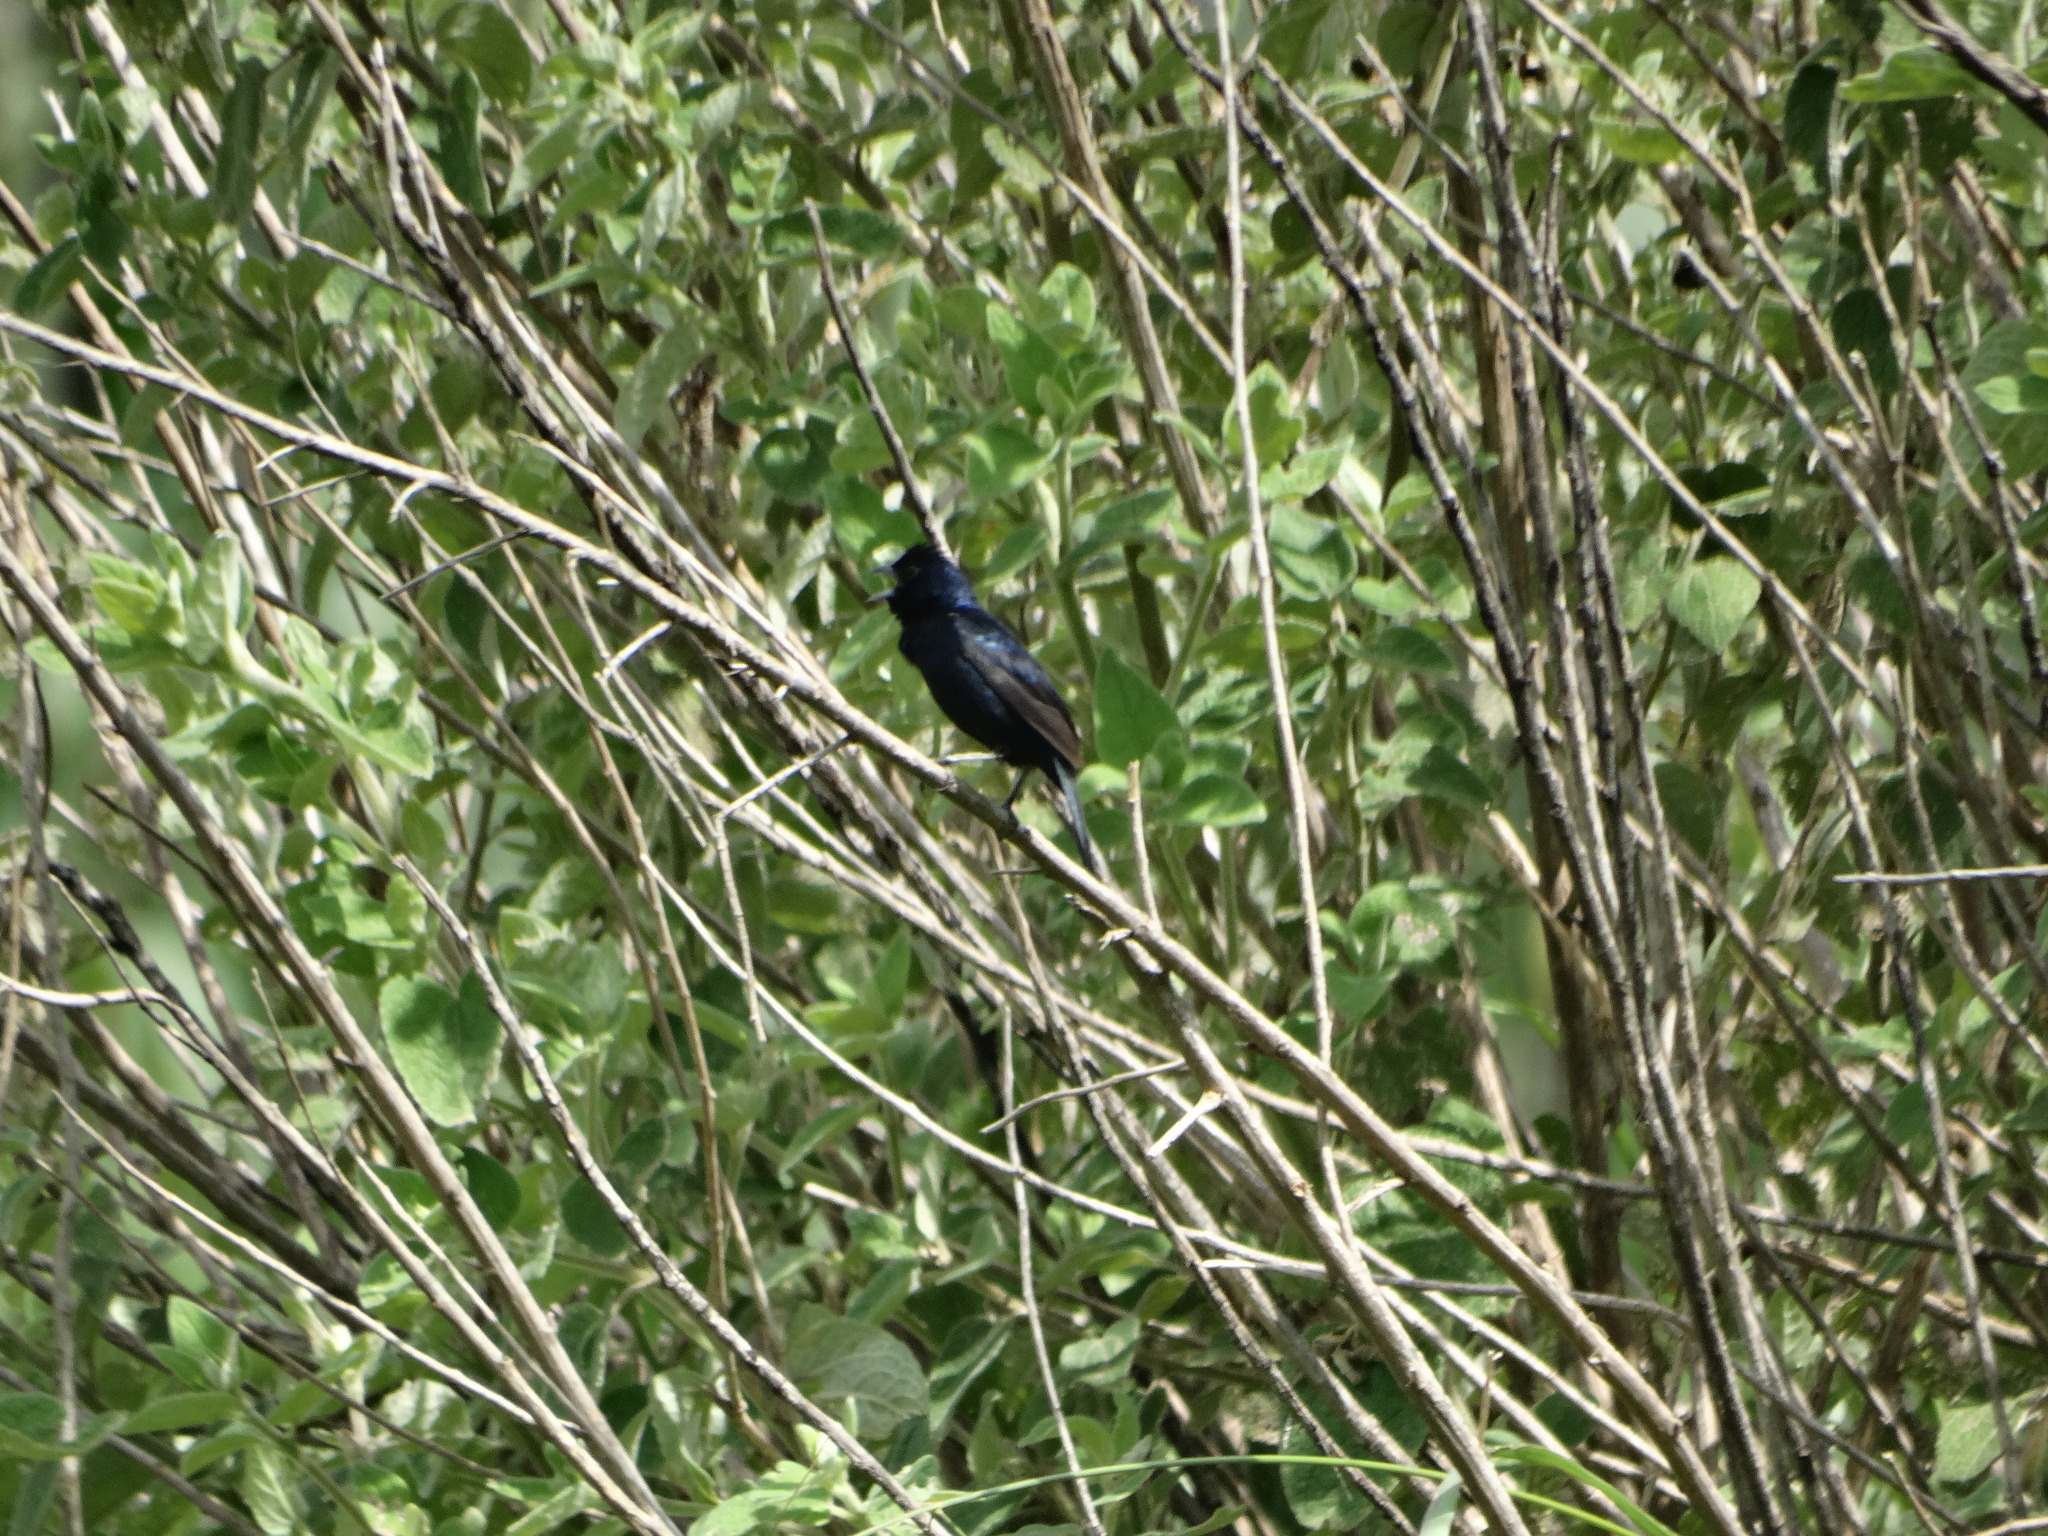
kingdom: Animalia
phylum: Chordata
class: Aves
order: Passeriformes
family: Thraupidae
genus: Volatinia
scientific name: Volatinia jacarina
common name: Blue-black grassquit
